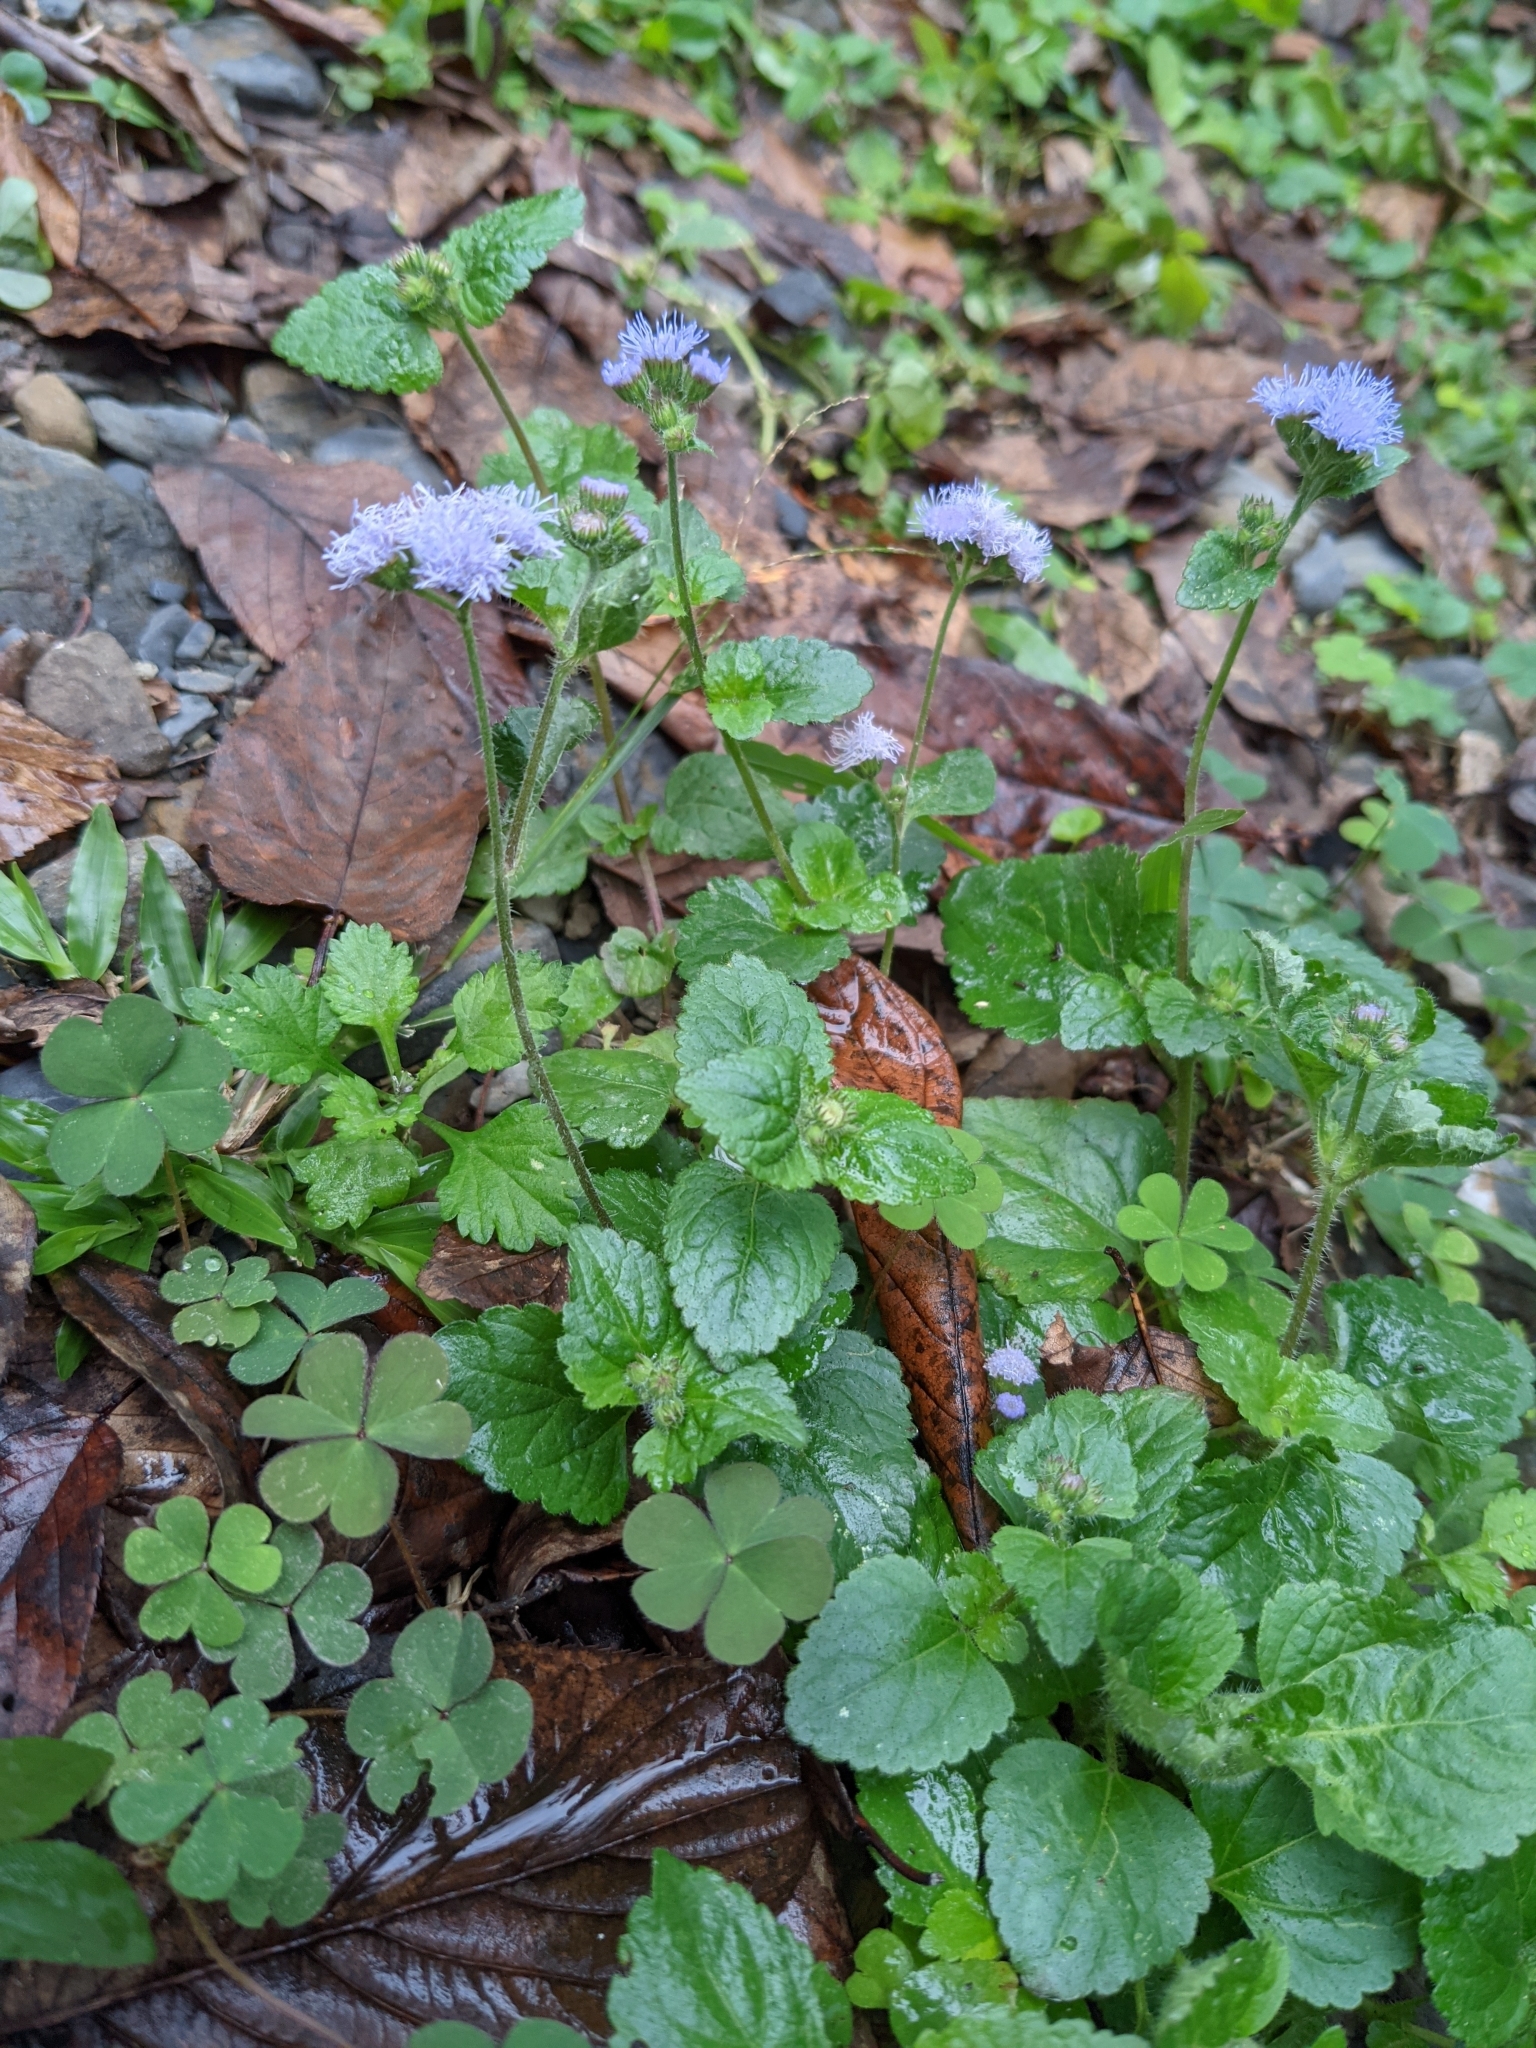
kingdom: Plantae
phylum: Tracheophyta
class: Magnoliopsida
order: Asterales
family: Asteraceae
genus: Ageratum
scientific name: Ageratum houstonianum
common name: Bluemink
